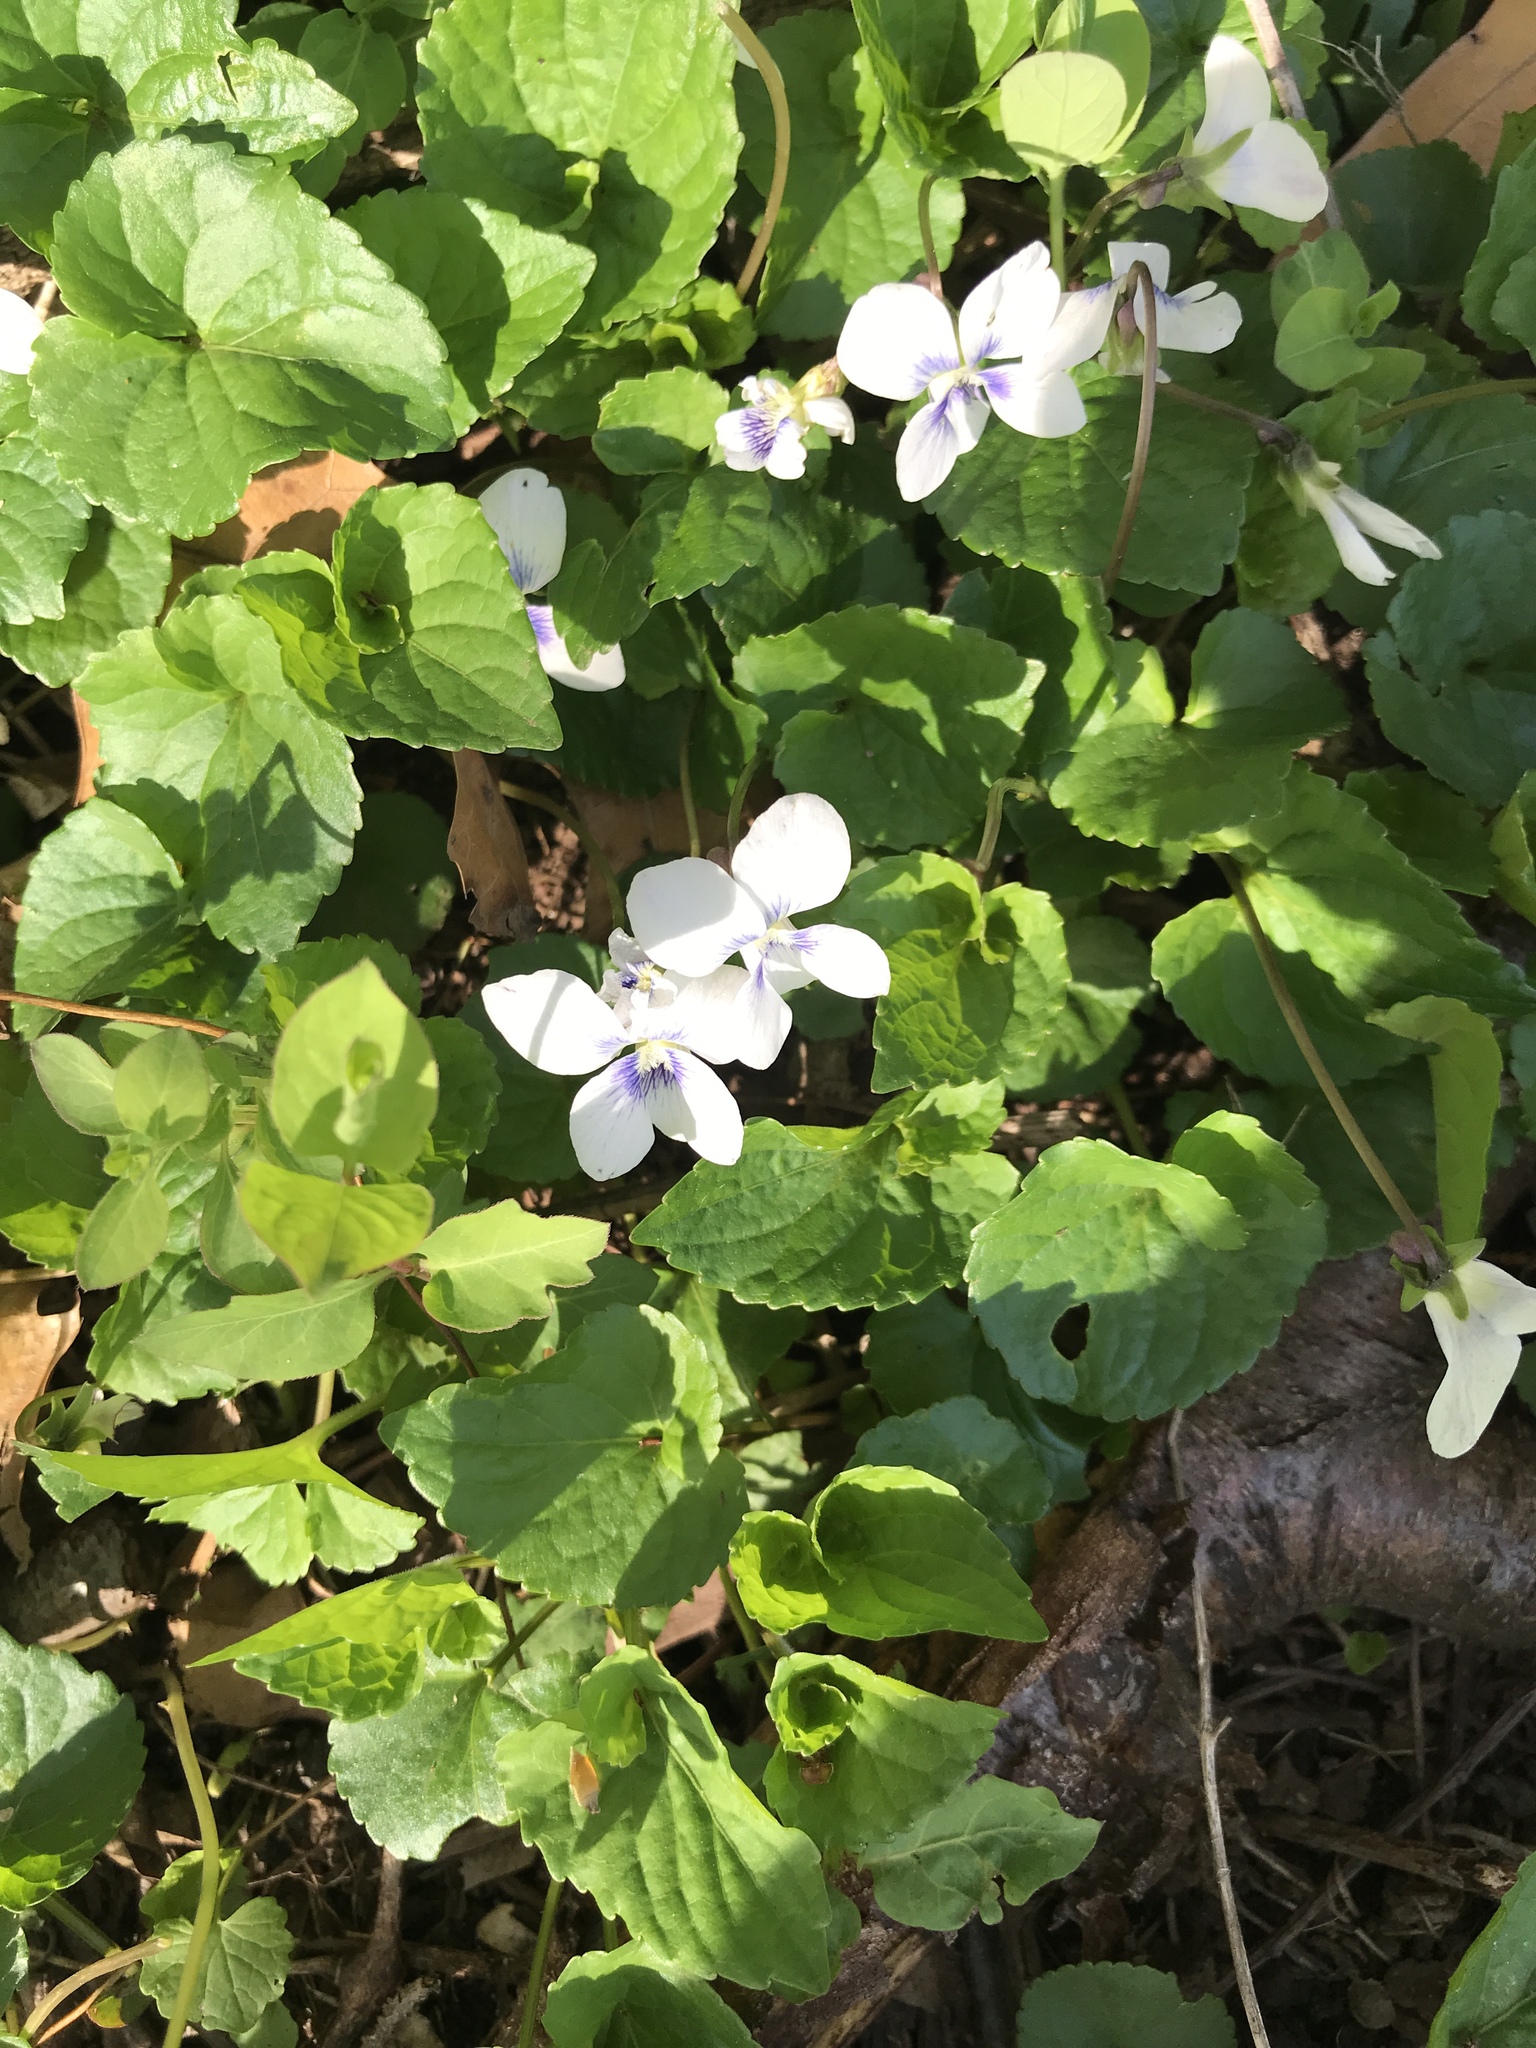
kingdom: Plantae
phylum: Tracheophyta
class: Magnoliopsida
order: Malpighiales
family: Violaceae
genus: Viola
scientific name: Viola sororia
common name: Dooryard violet
